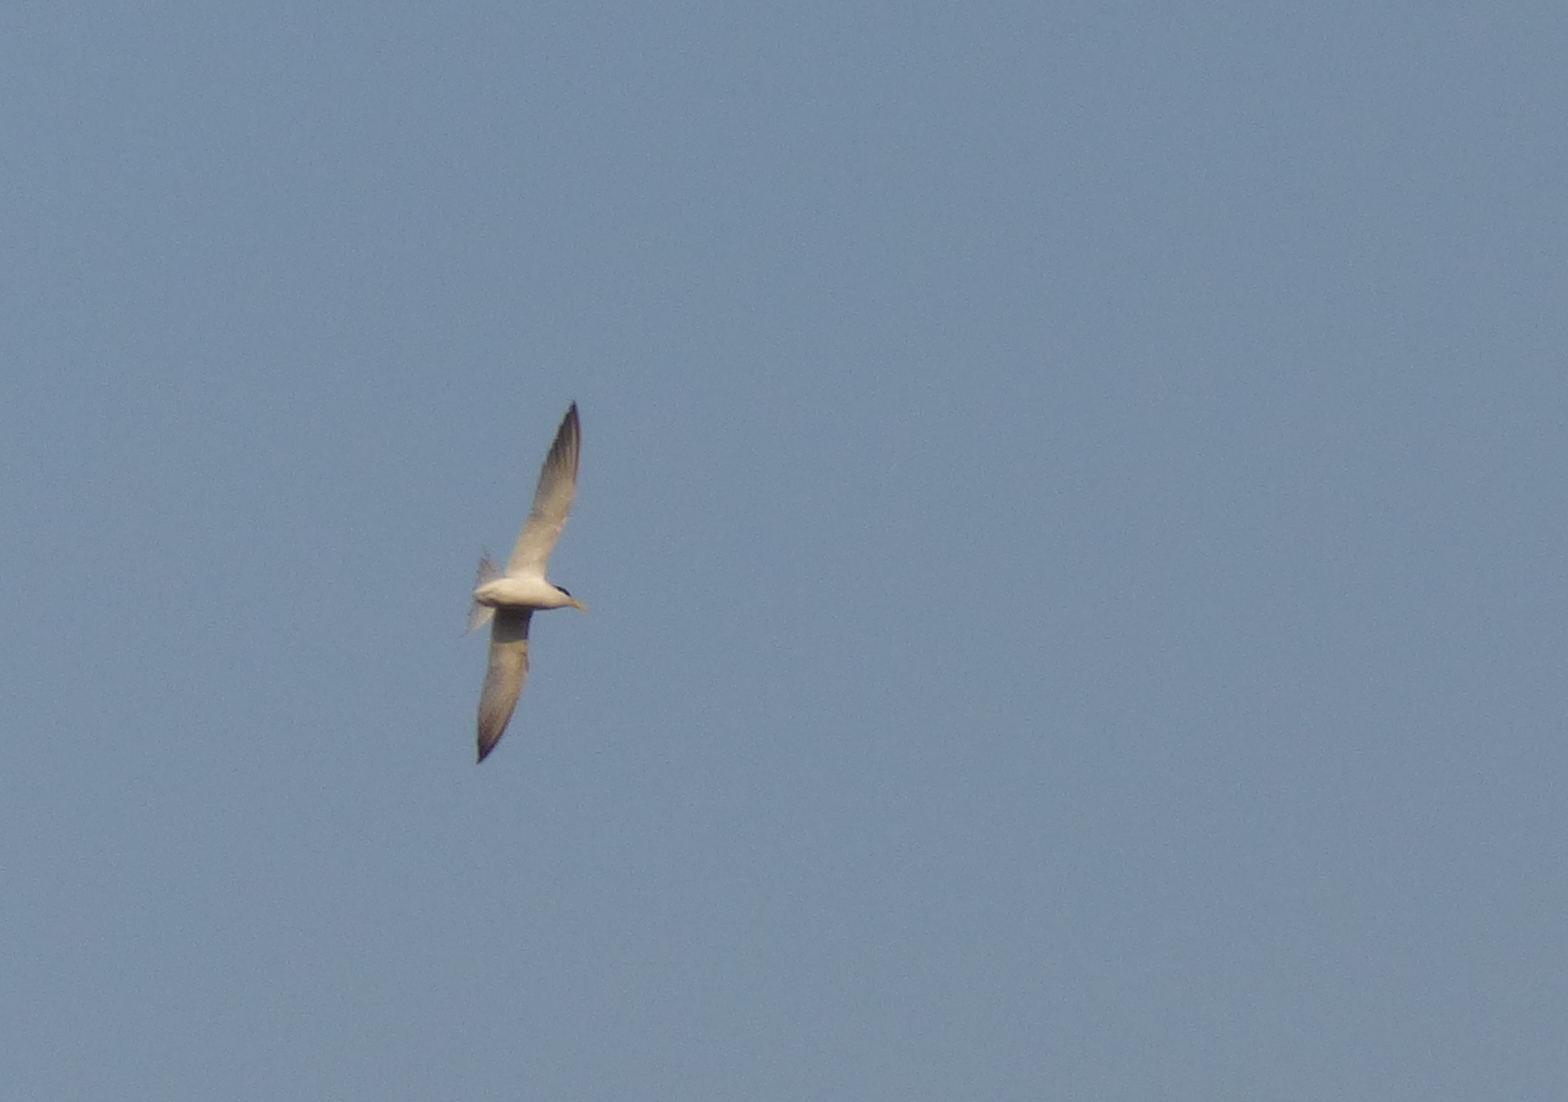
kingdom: Animalia
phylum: Chordata
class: Aves
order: Charadriiformes
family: Laridae
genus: Sternula
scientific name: Sternula superciliaris
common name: Yellow-billed tern
